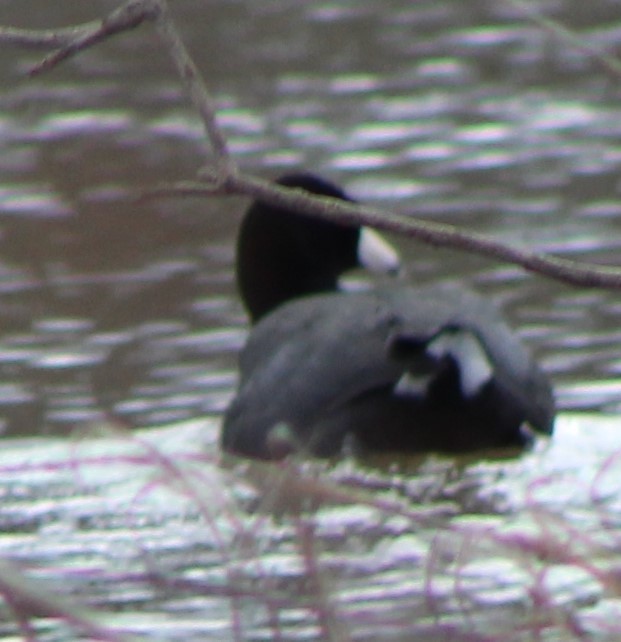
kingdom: Animalia
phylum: Chordata
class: Aves
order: Gruiformes
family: Rallidae
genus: Fulica
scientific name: Fulica americana
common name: American coot
